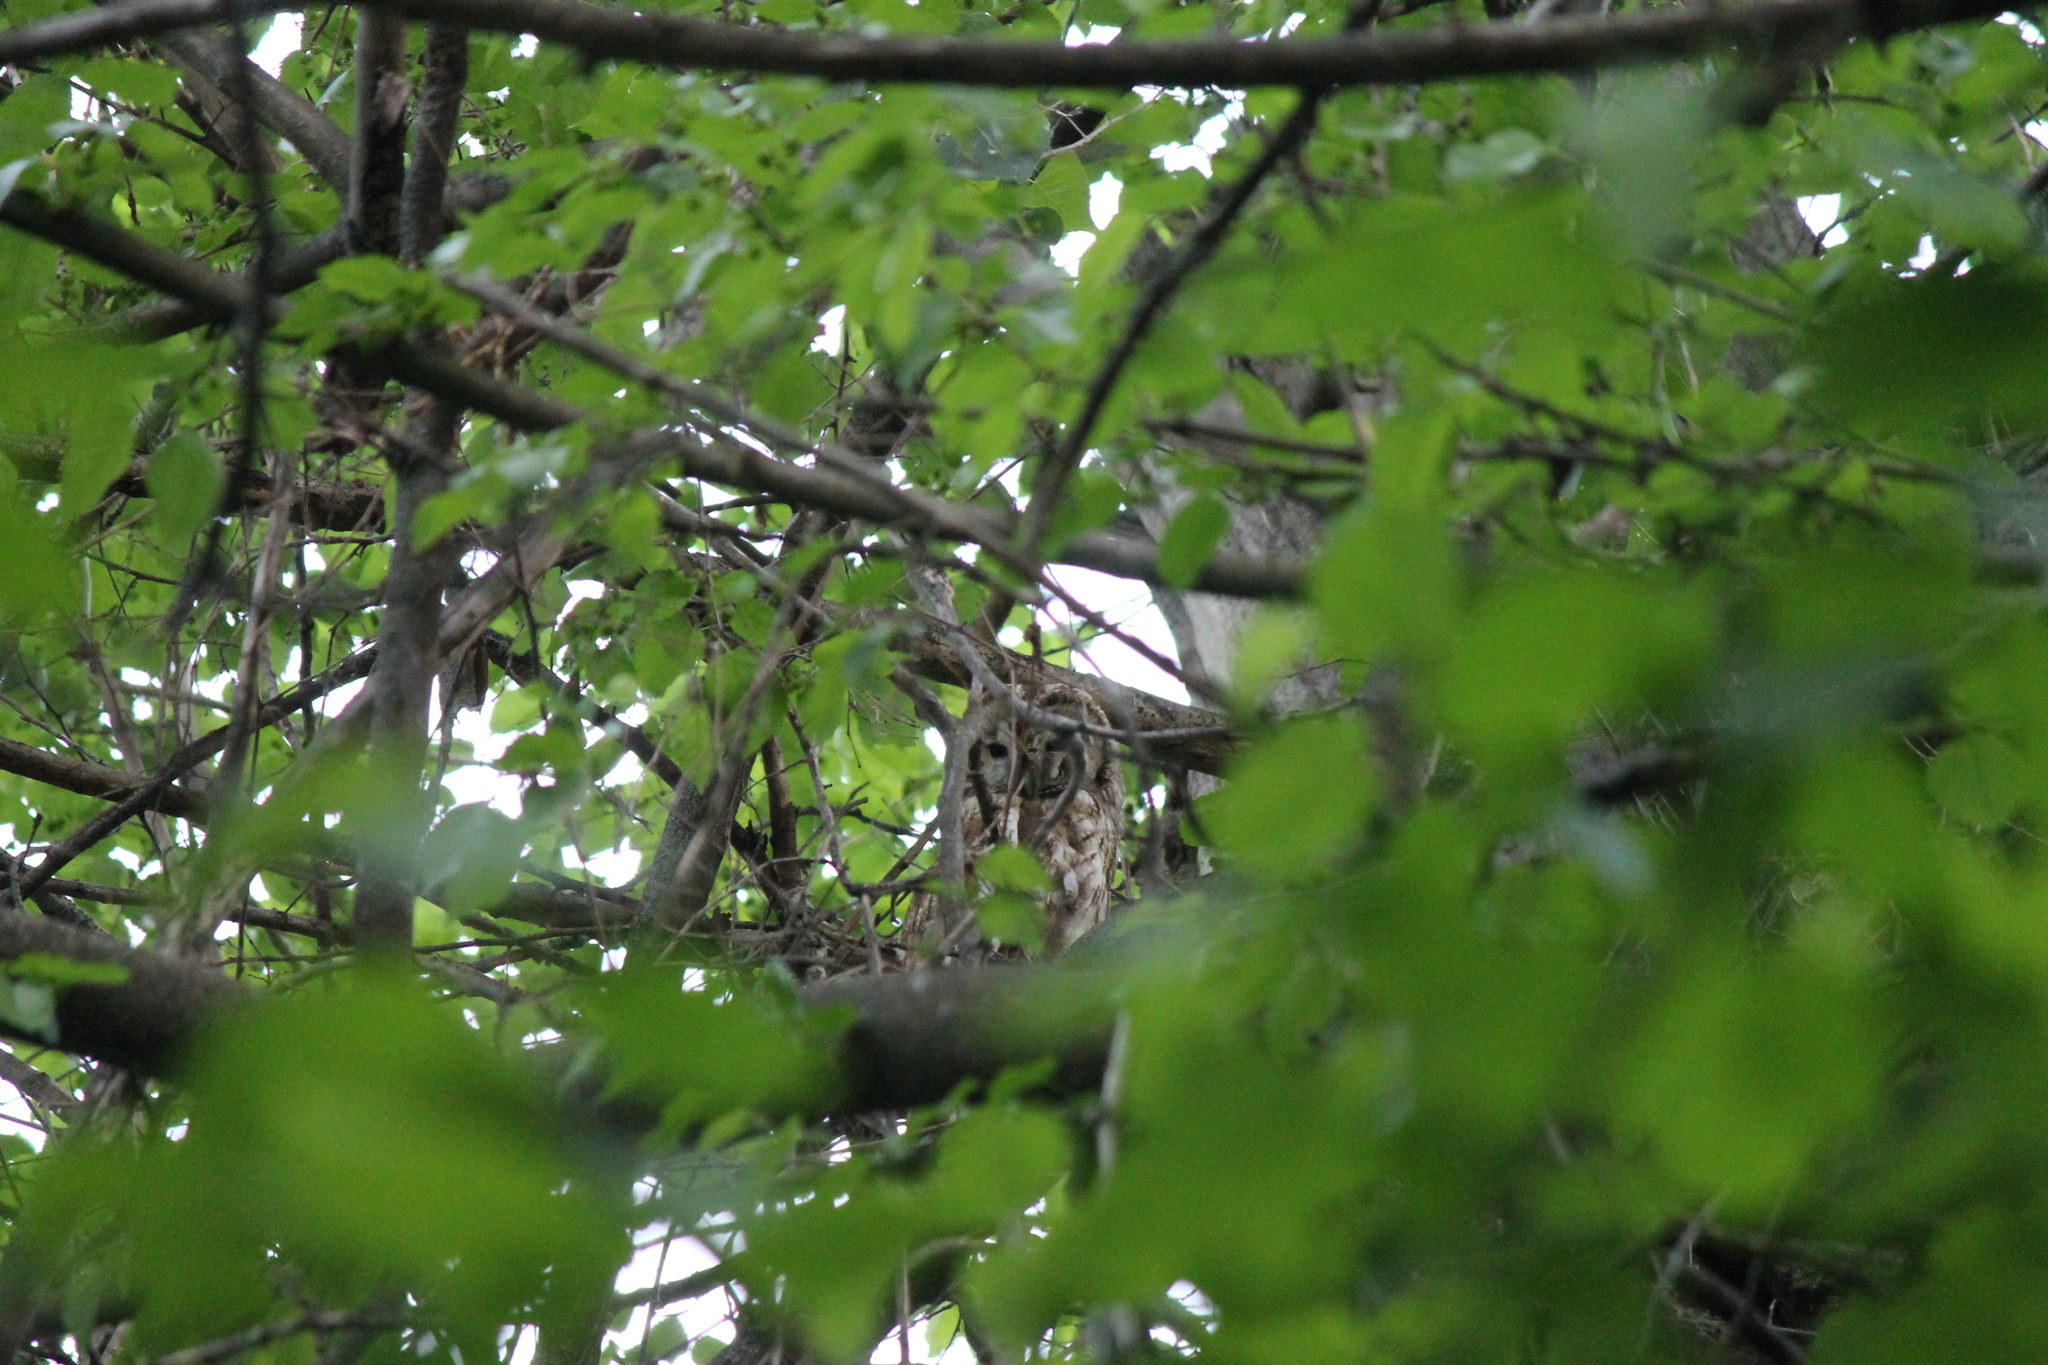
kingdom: Animalia
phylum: Chordata
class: Aves
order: Strigiformes
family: Strigidae
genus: Strix
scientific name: Strix aluco
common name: Tawny owl
